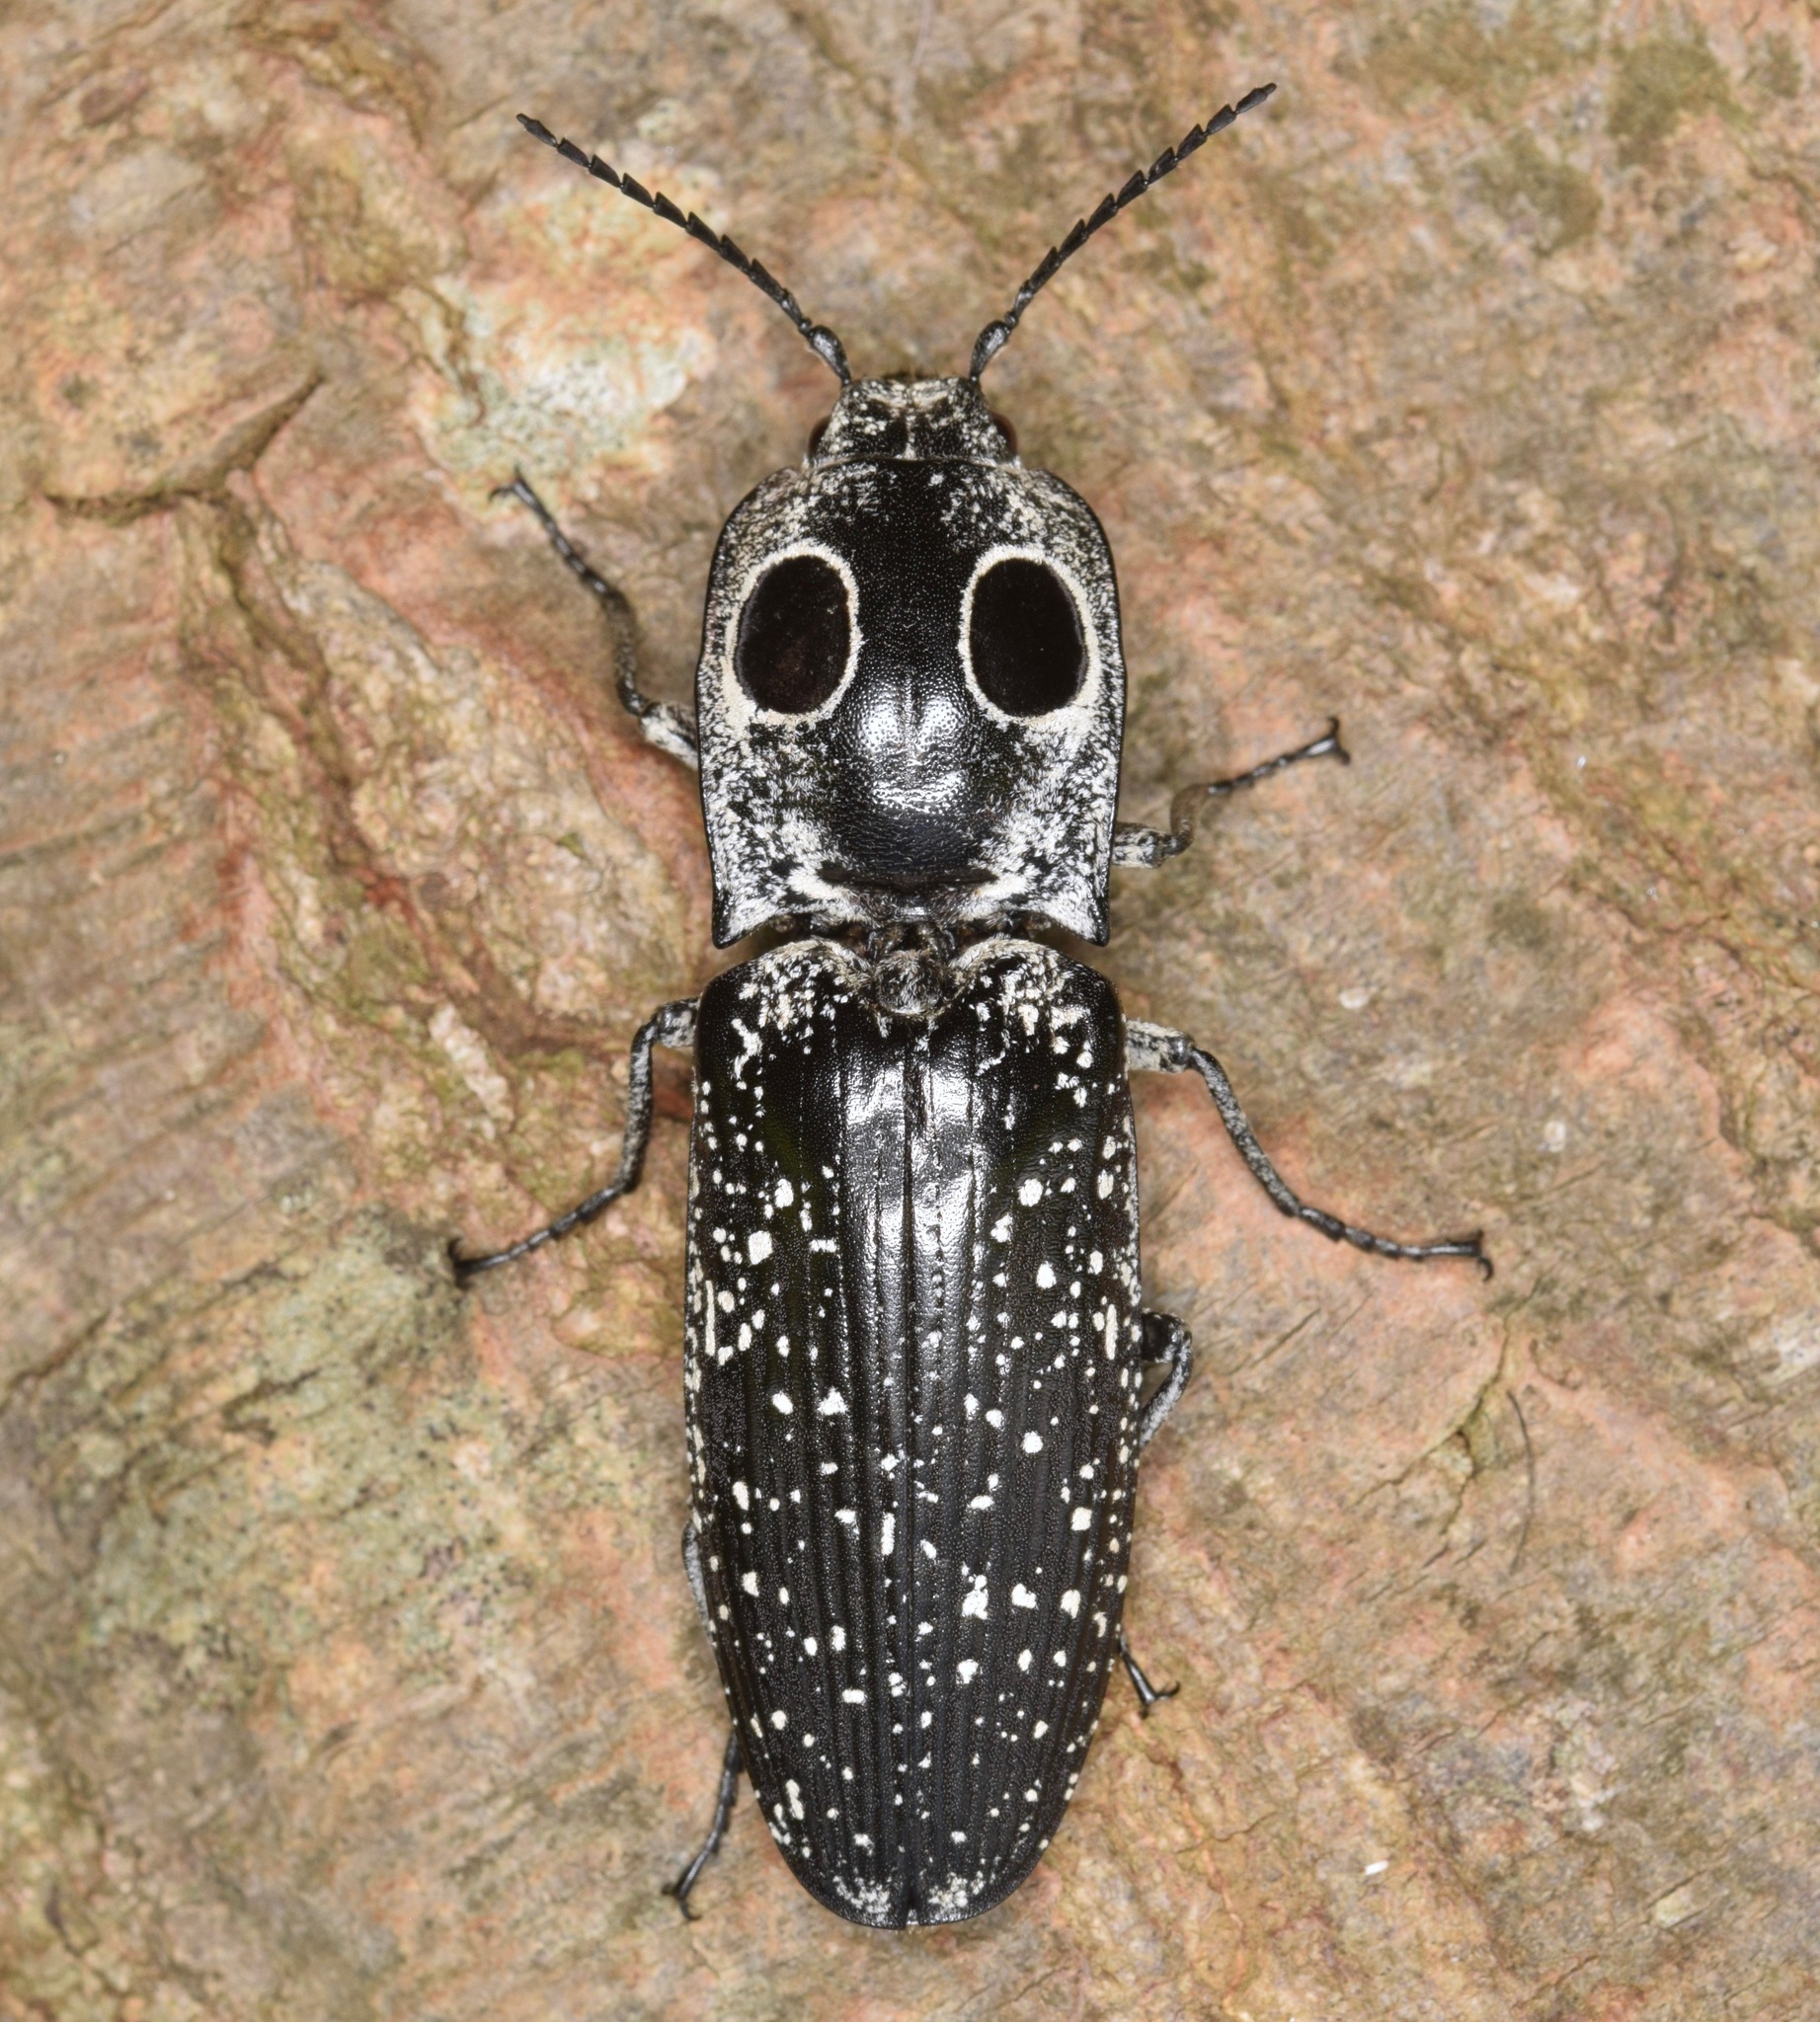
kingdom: Animalia
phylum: Arthropoda
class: Insecta
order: Coleoptera
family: Elateridae
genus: Alaus
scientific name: Alaus oculatus
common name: Eastern eyed click beetle
